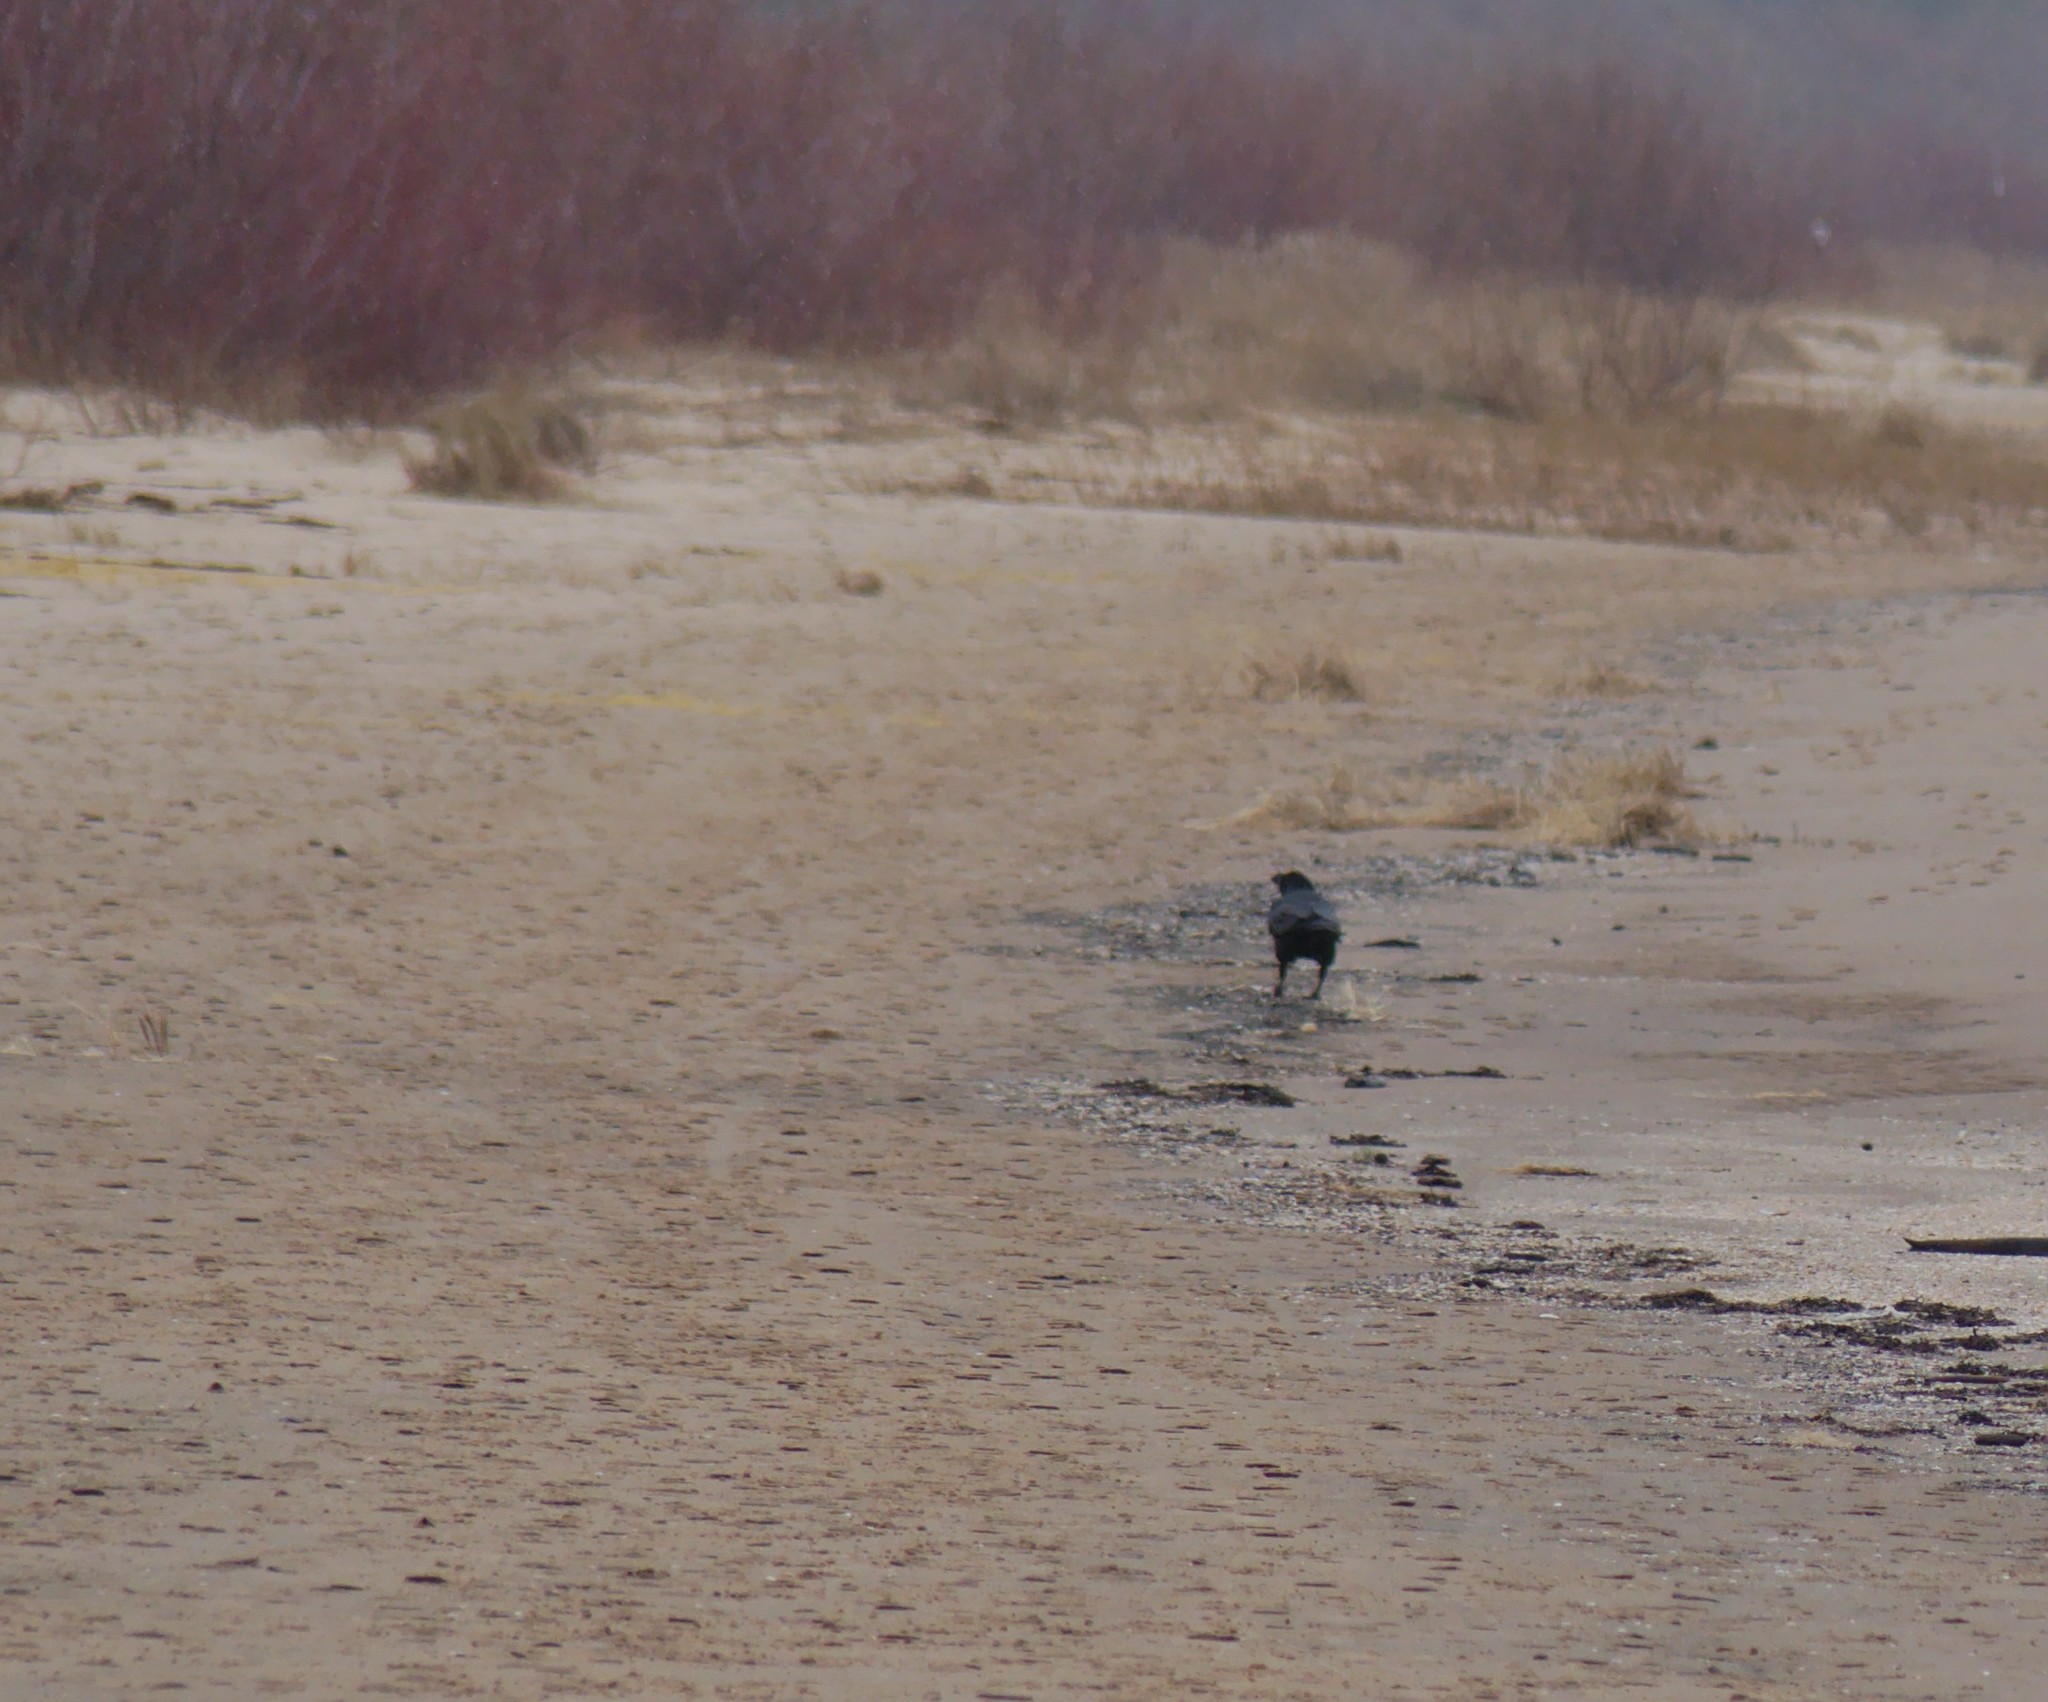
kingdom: Animalia
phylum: Chordata
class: Aves
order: Passeriformes
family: Corvidae
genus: Corvus
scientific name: Corvus corax
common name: Common raven
